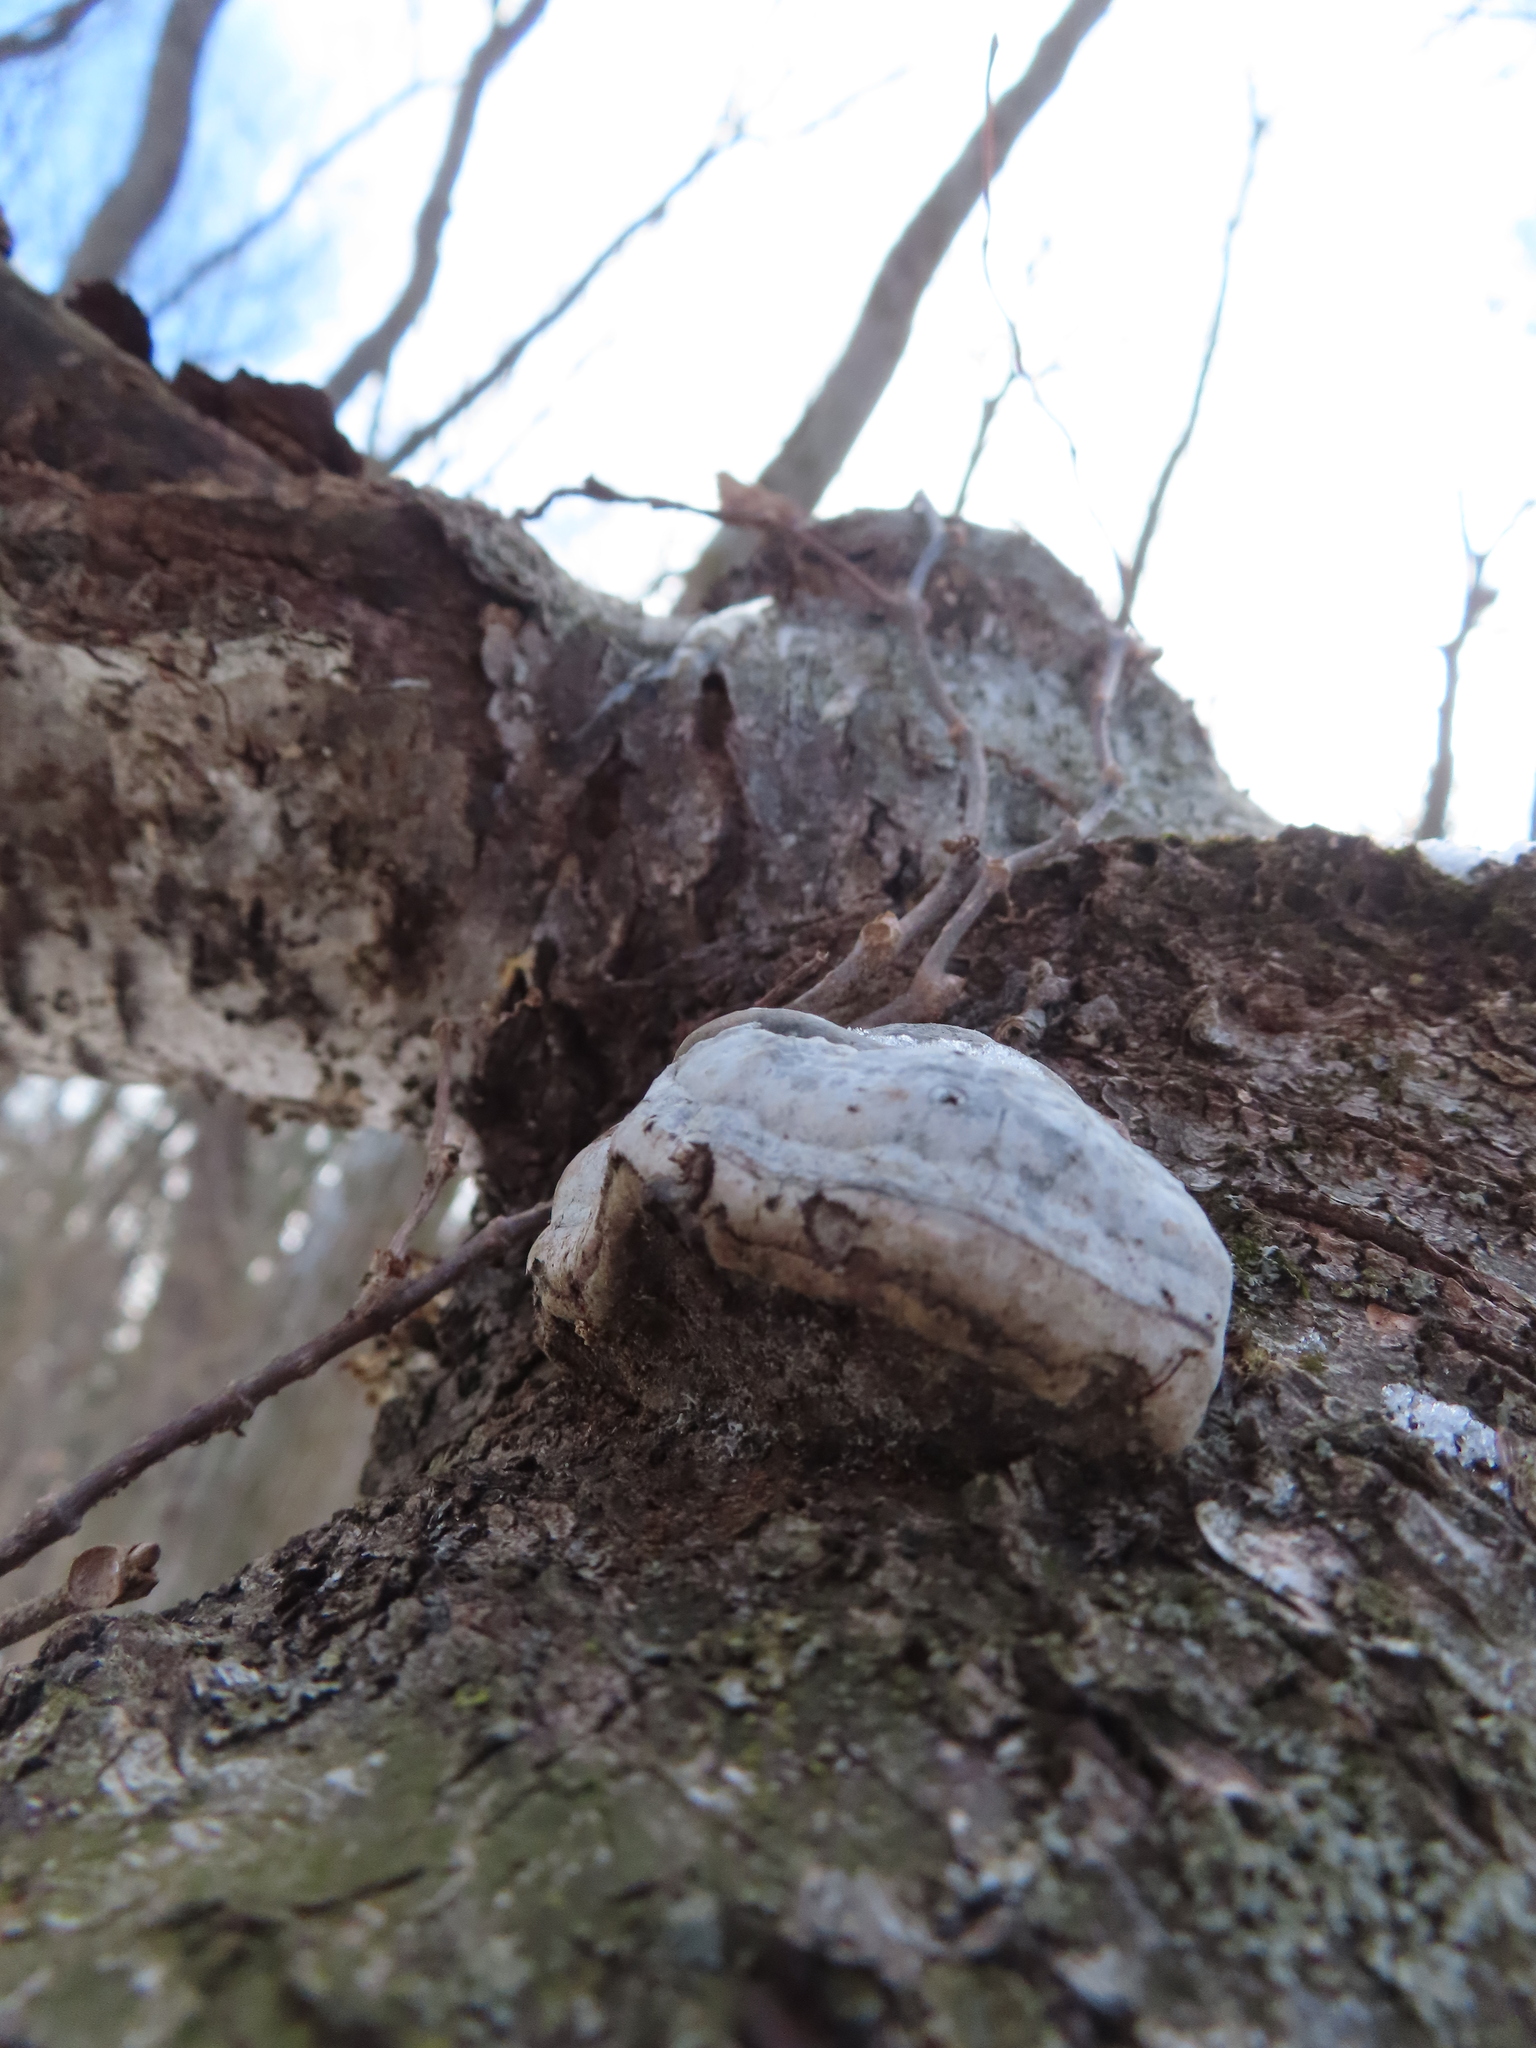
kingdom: Fungi
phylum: Basidiomycota
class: Agaricomycetes
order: Polyporales
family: Polyporaceae
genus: Fomes
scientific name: Fomes fomentarius
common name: Hoof fungus
